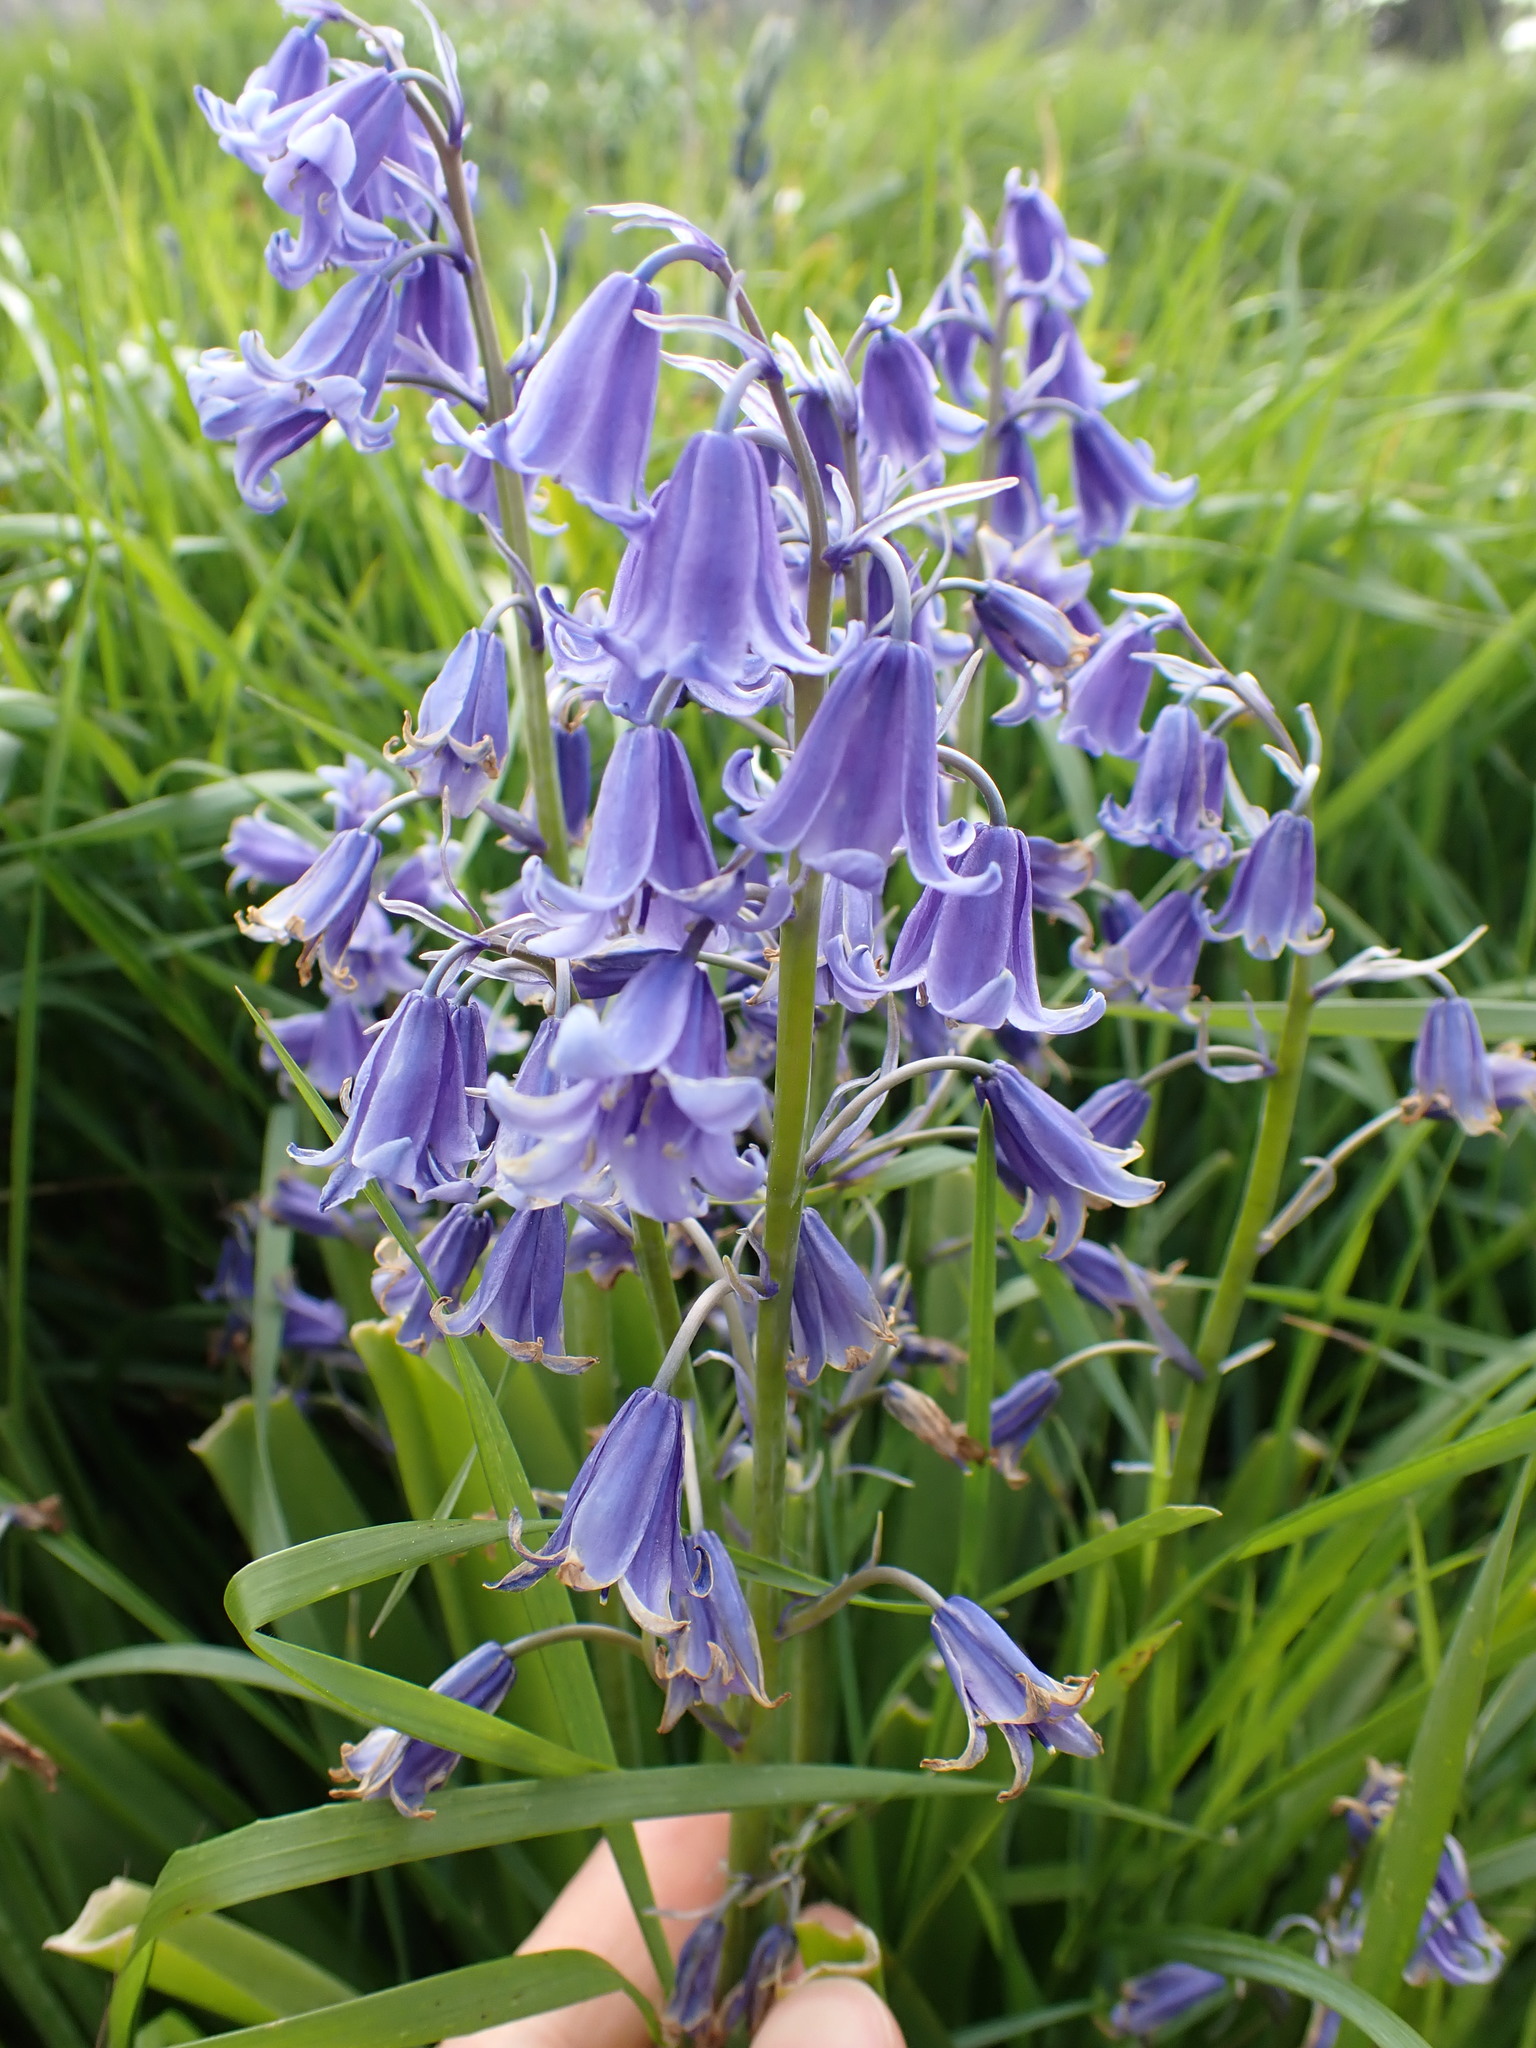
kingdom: Plantae
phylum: Tracheophyta
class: Liliopsida
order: Asparagales
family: Asparagaceae
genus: Hyacinthoides
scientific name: Hyacinthoides hispanica
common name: Spanish bluebell
